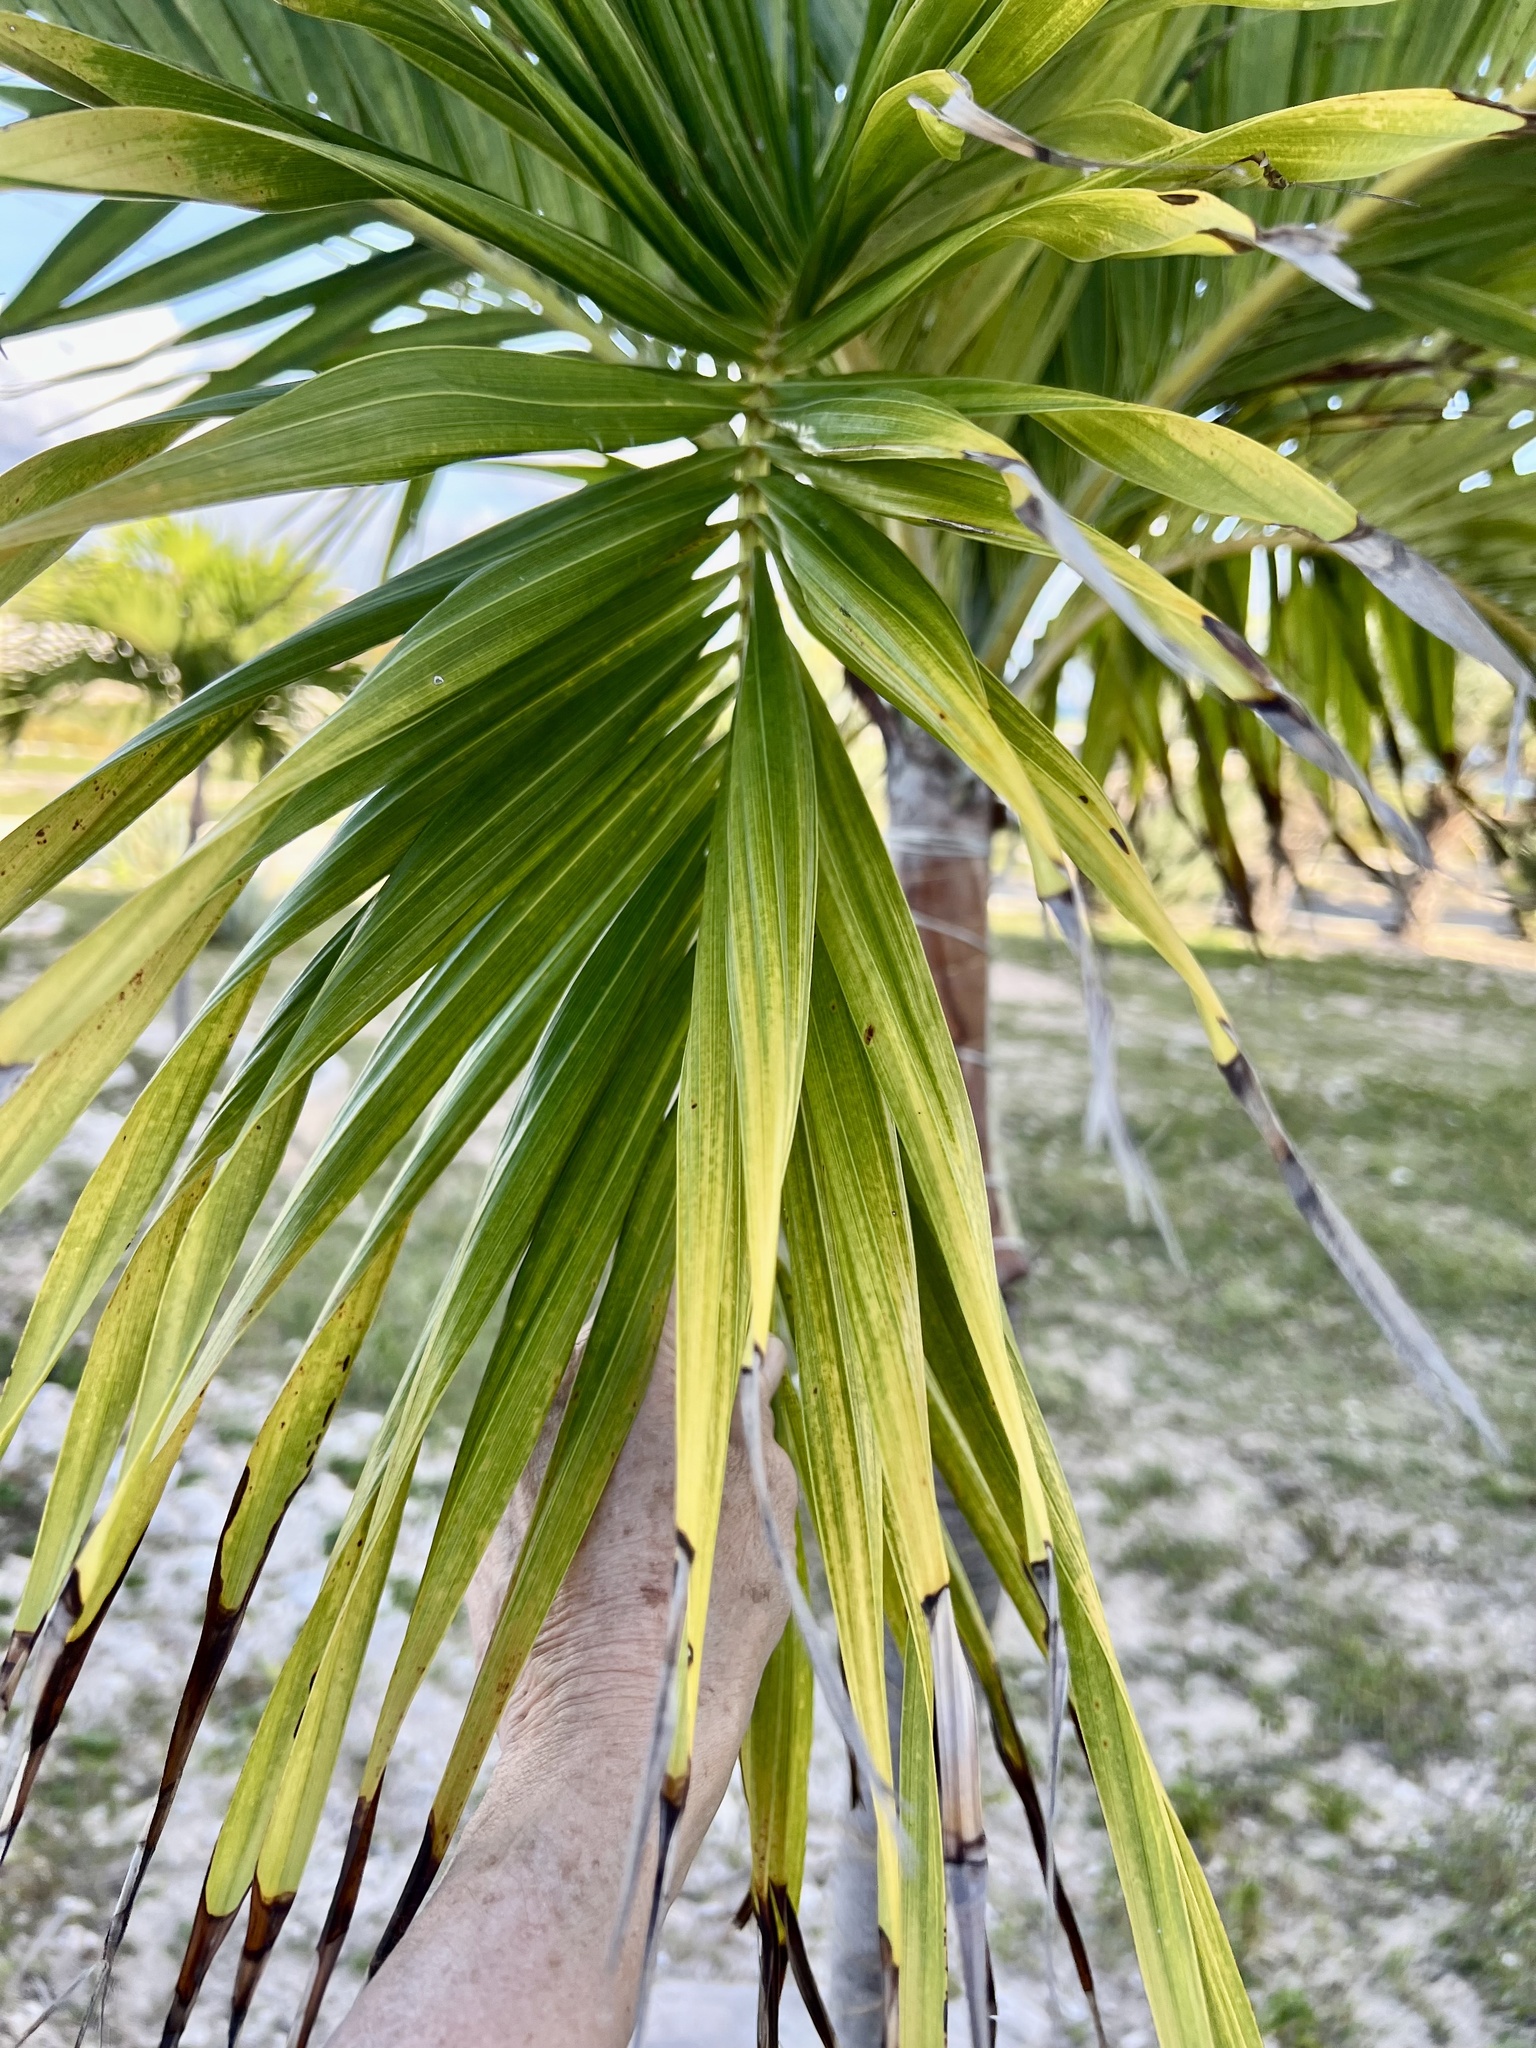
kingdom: Plantae
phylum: Tracheophyta
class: Liliopsida
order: Arecales
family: Arecaceae
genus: Adonidia
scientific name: Adonidia merrillii
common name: Manila palm
